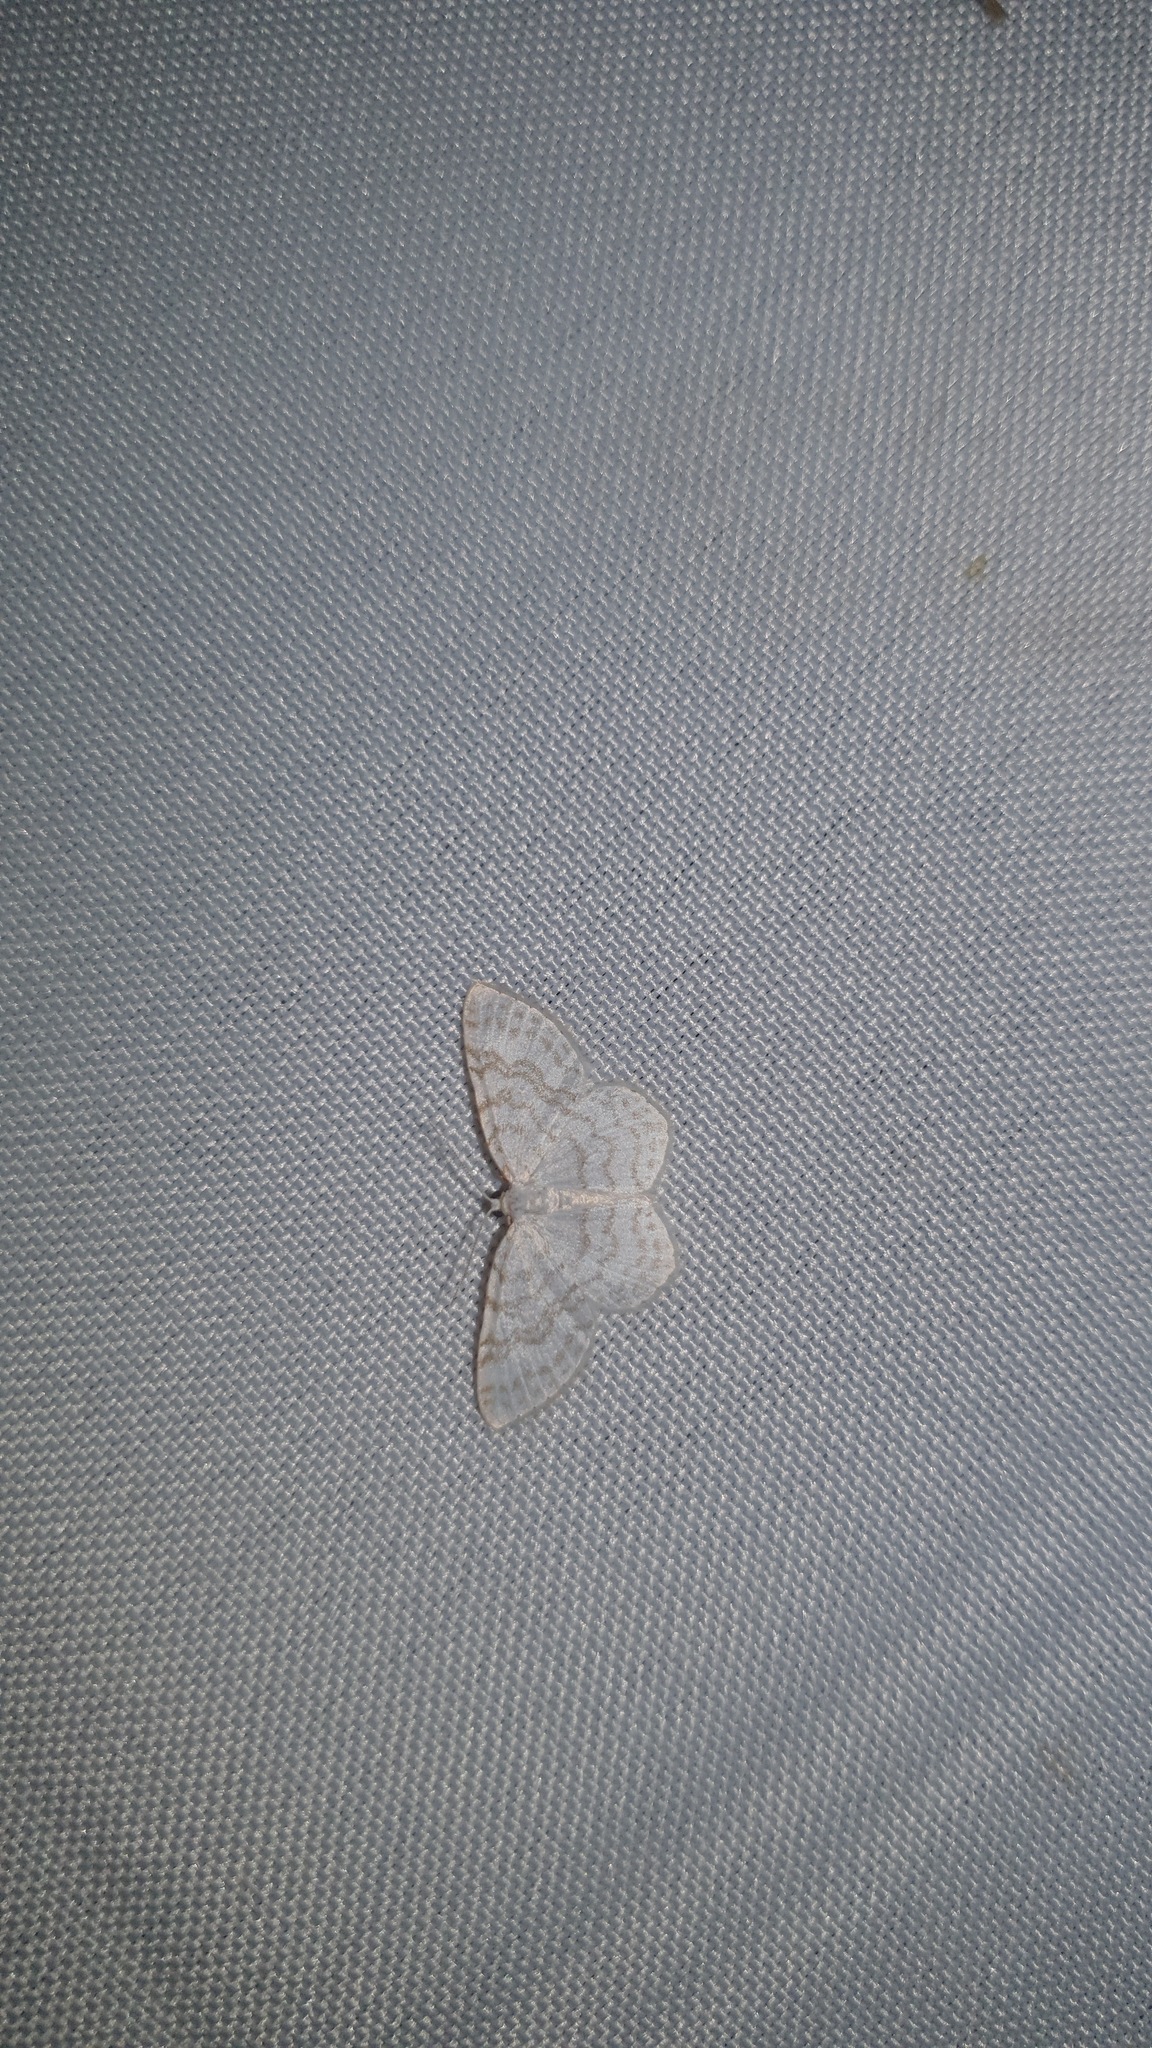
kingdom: Animalia
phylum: Arthropoda
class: Insecta
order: Lepidoptera
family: Geometridae
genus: Asthena
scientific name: Asthena albulata
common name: Small white wave
